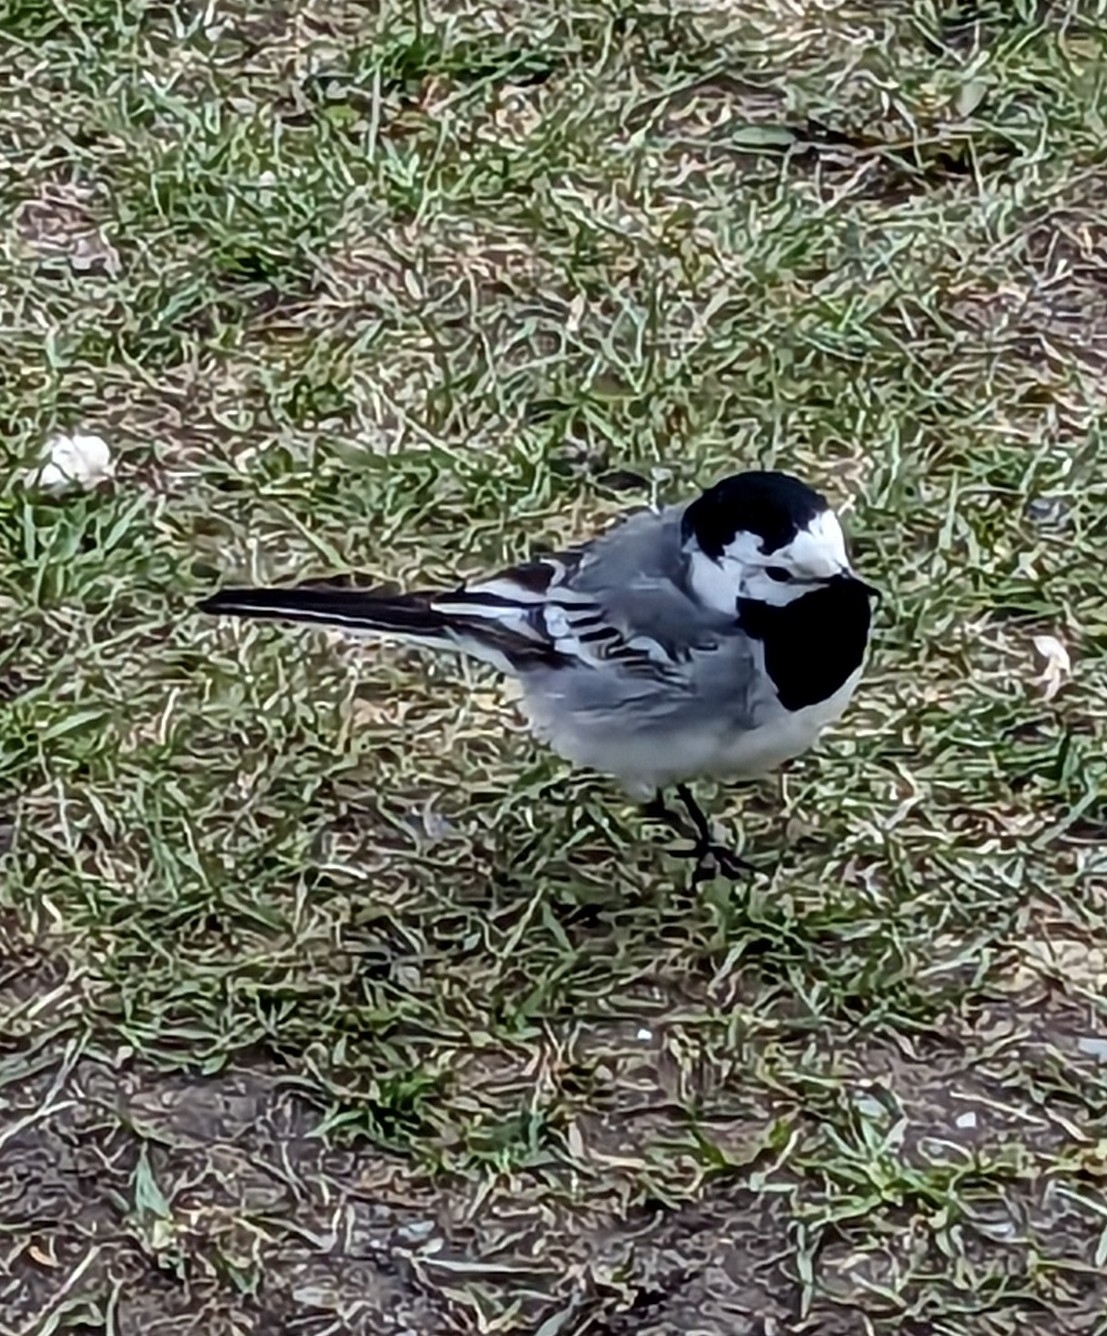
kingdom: Animalia
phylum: Chordata
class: Aves
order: Passeriformes
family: Motacillidae
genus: Motacilla
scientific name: Motacilla alba
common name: White wagtail
